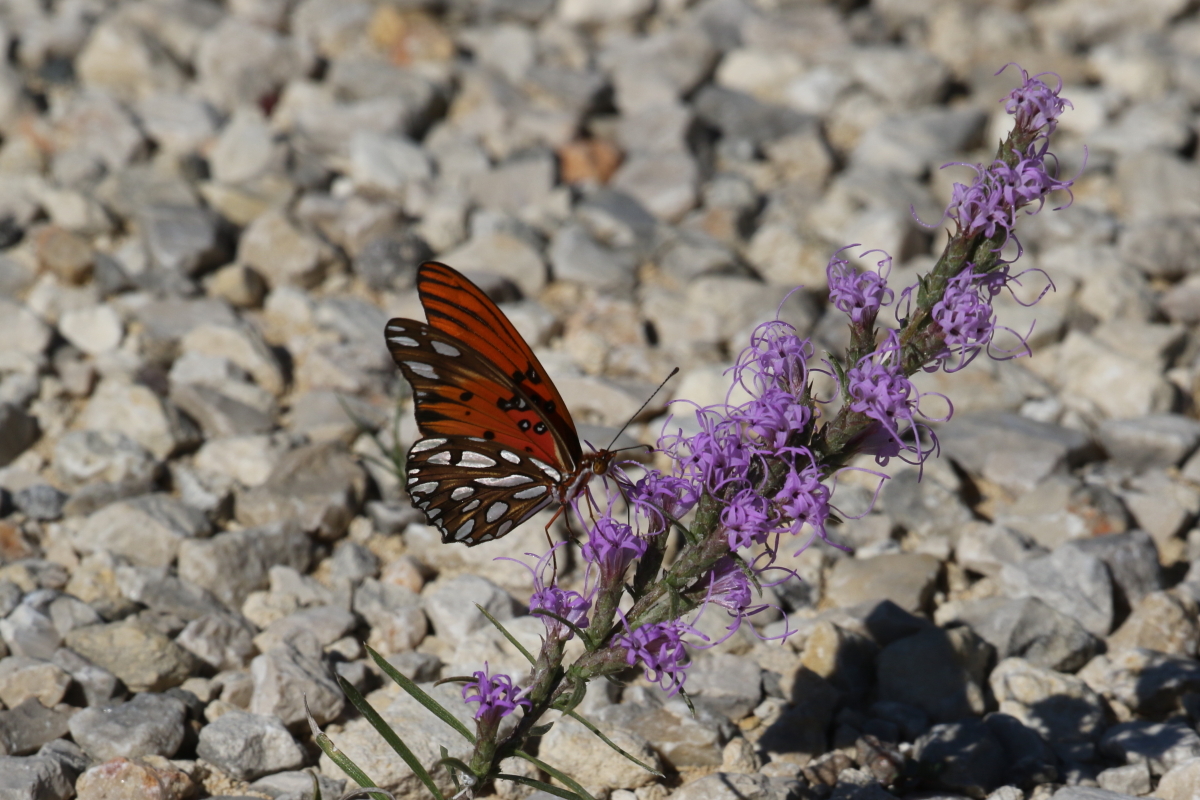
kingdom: Animalia
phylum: Arthropoda
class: Insecta
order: Lepidoptera
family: Nymphalidae
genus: Dione
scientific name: Dione vanillae
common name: Gulf fritillary
